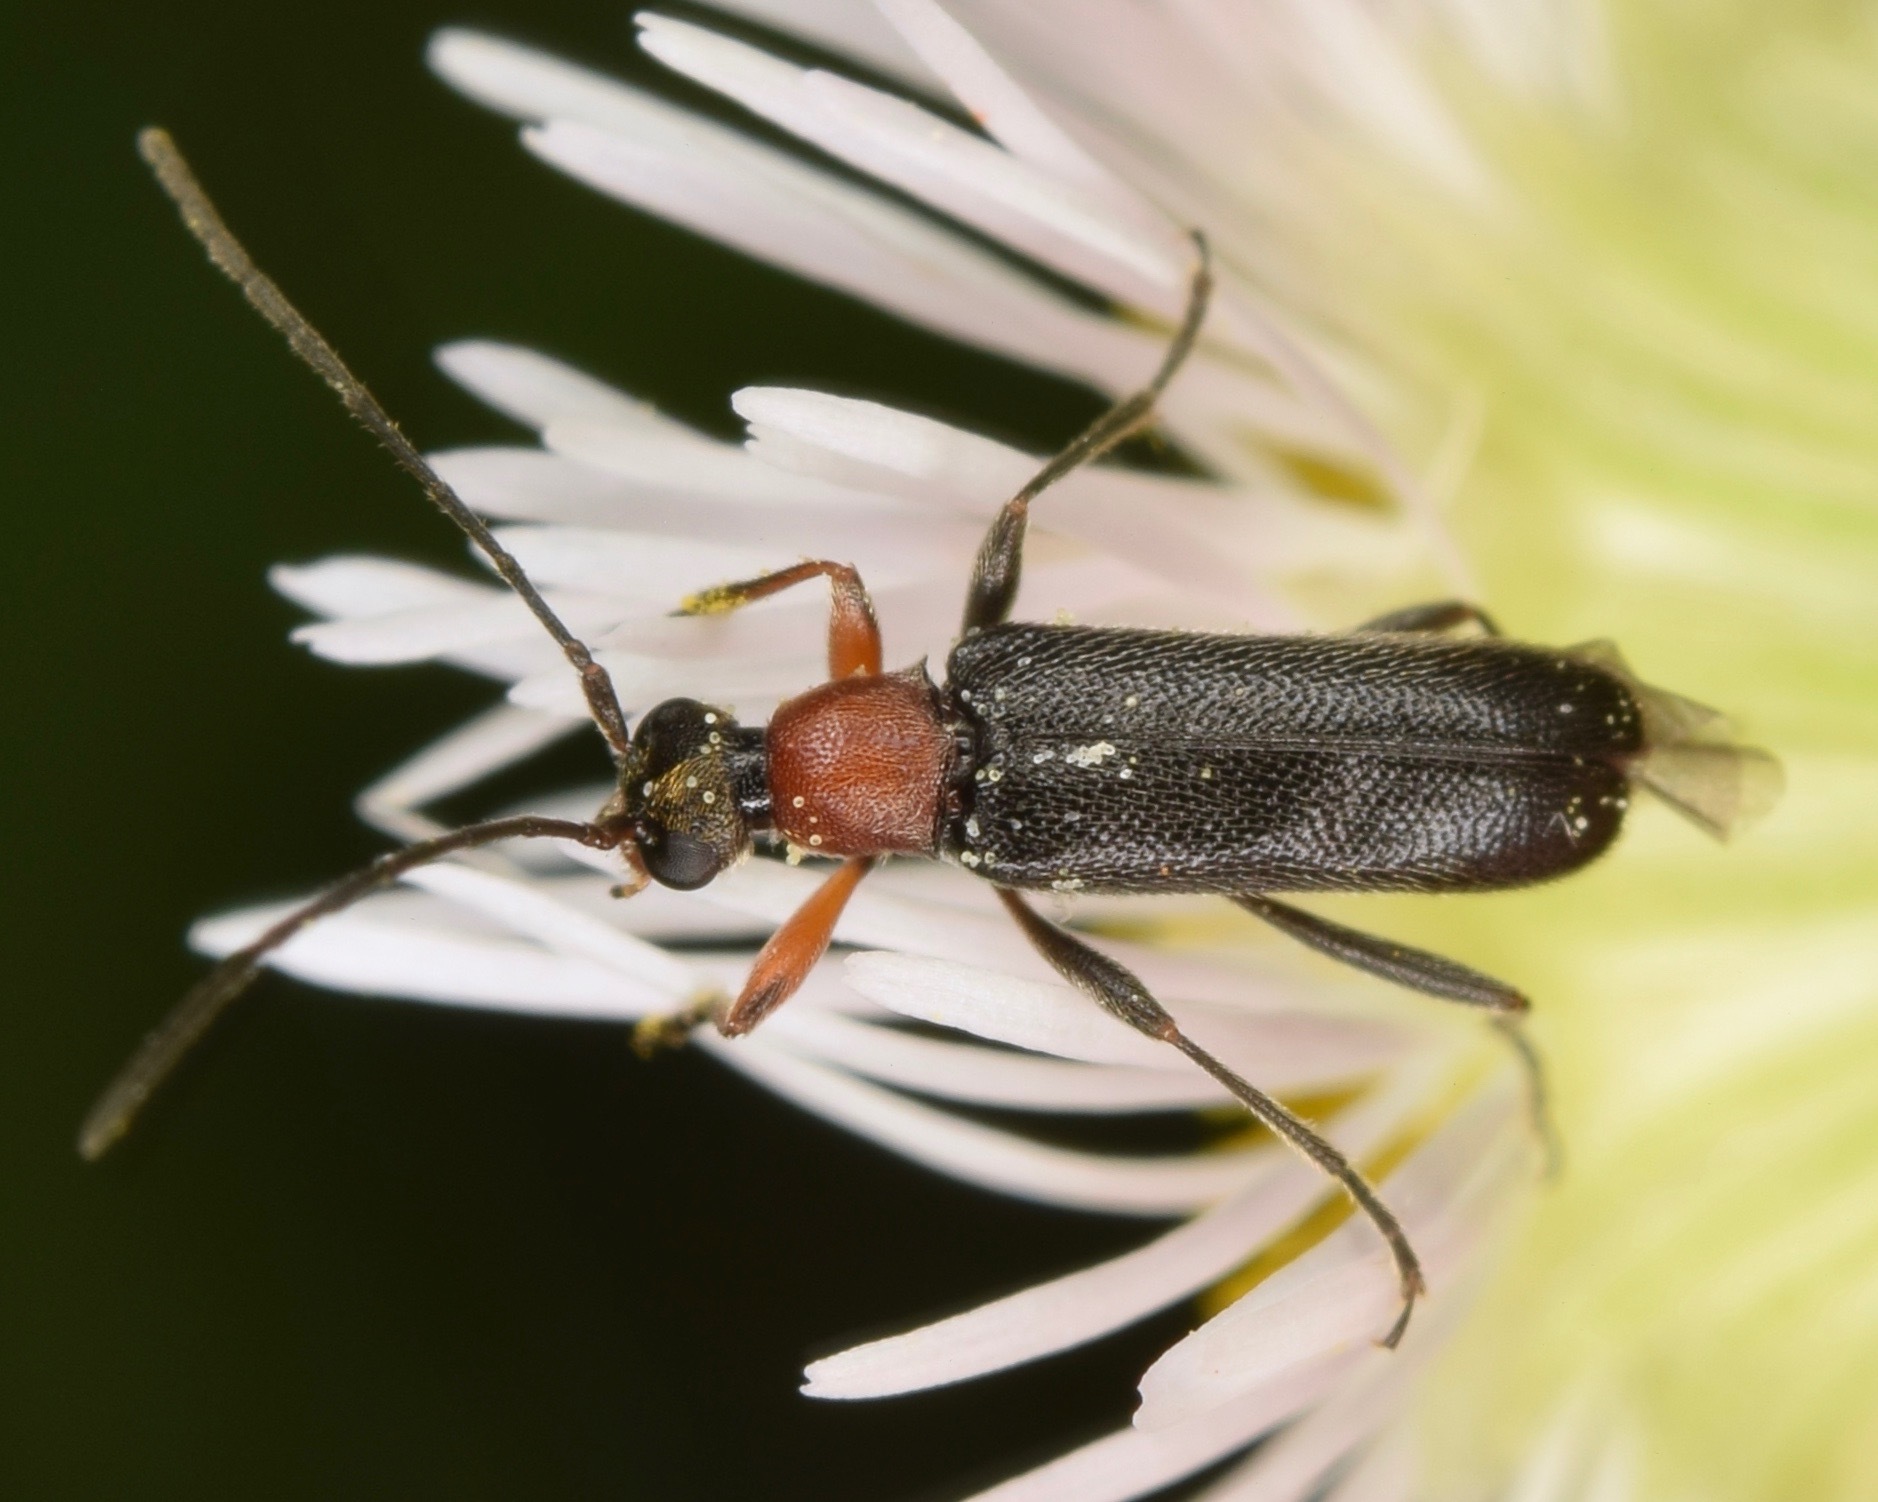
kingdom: Animalia
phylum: Arthropoda
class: Insecta
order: Coleoptera
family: Cerambycidae
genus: Grammoptera
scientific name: Grammoptera haematites
